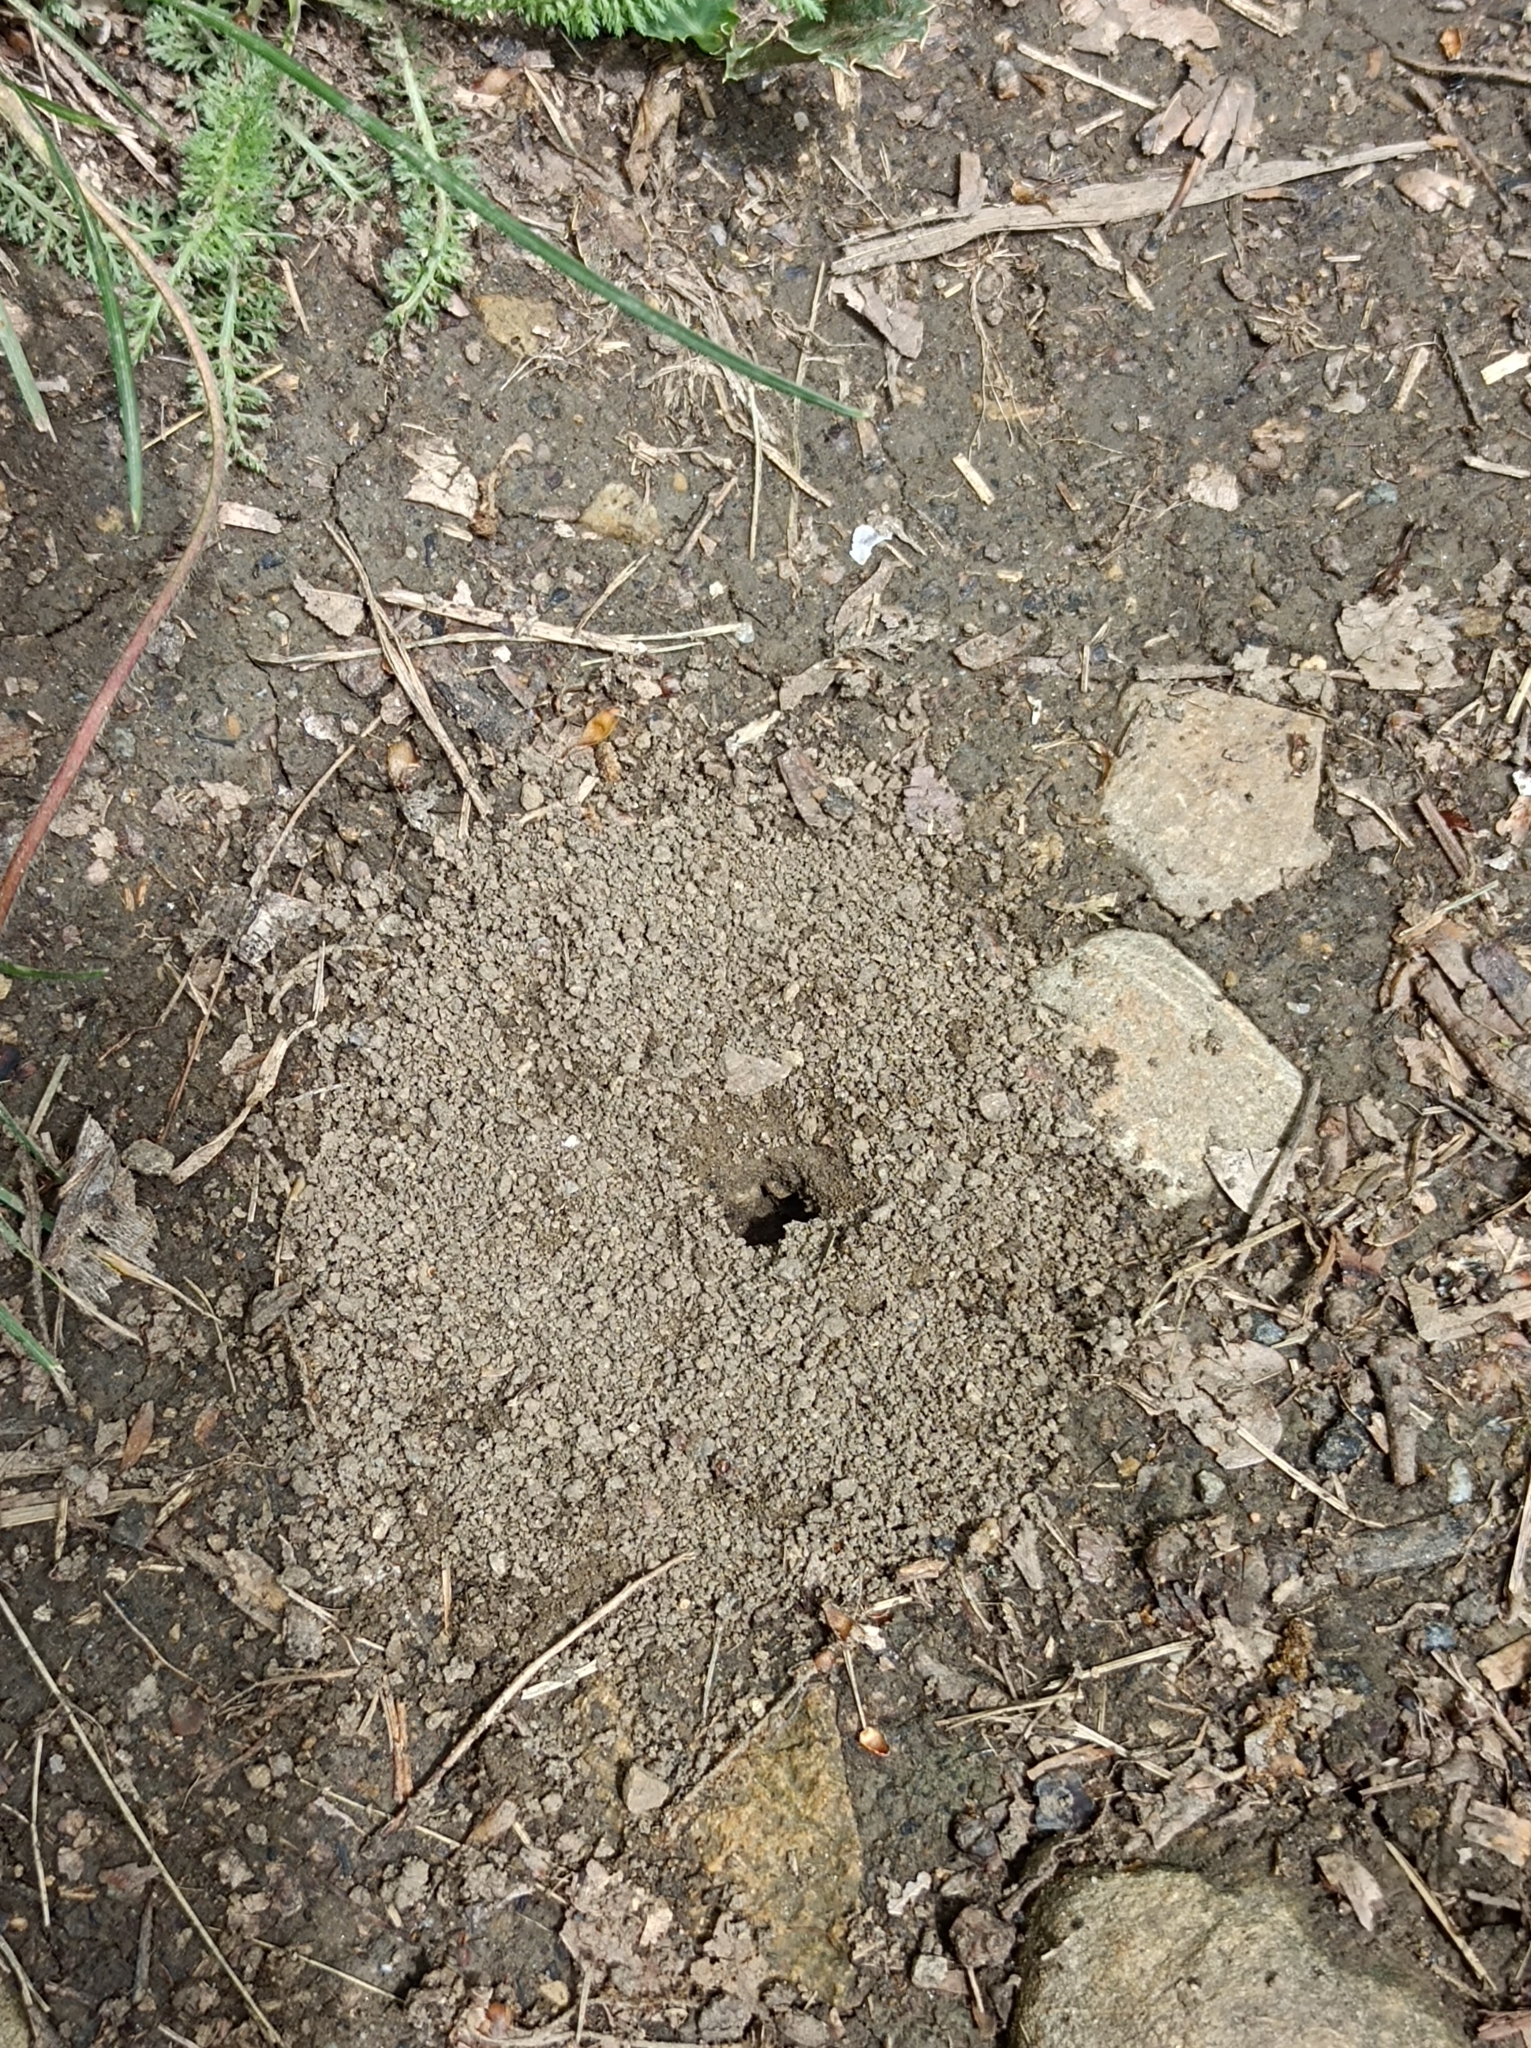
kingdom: Animalia
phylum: Arthropoda
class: Insecta
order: Hymenoptera
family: Formicidae
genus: Messor
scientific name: Messor structor
